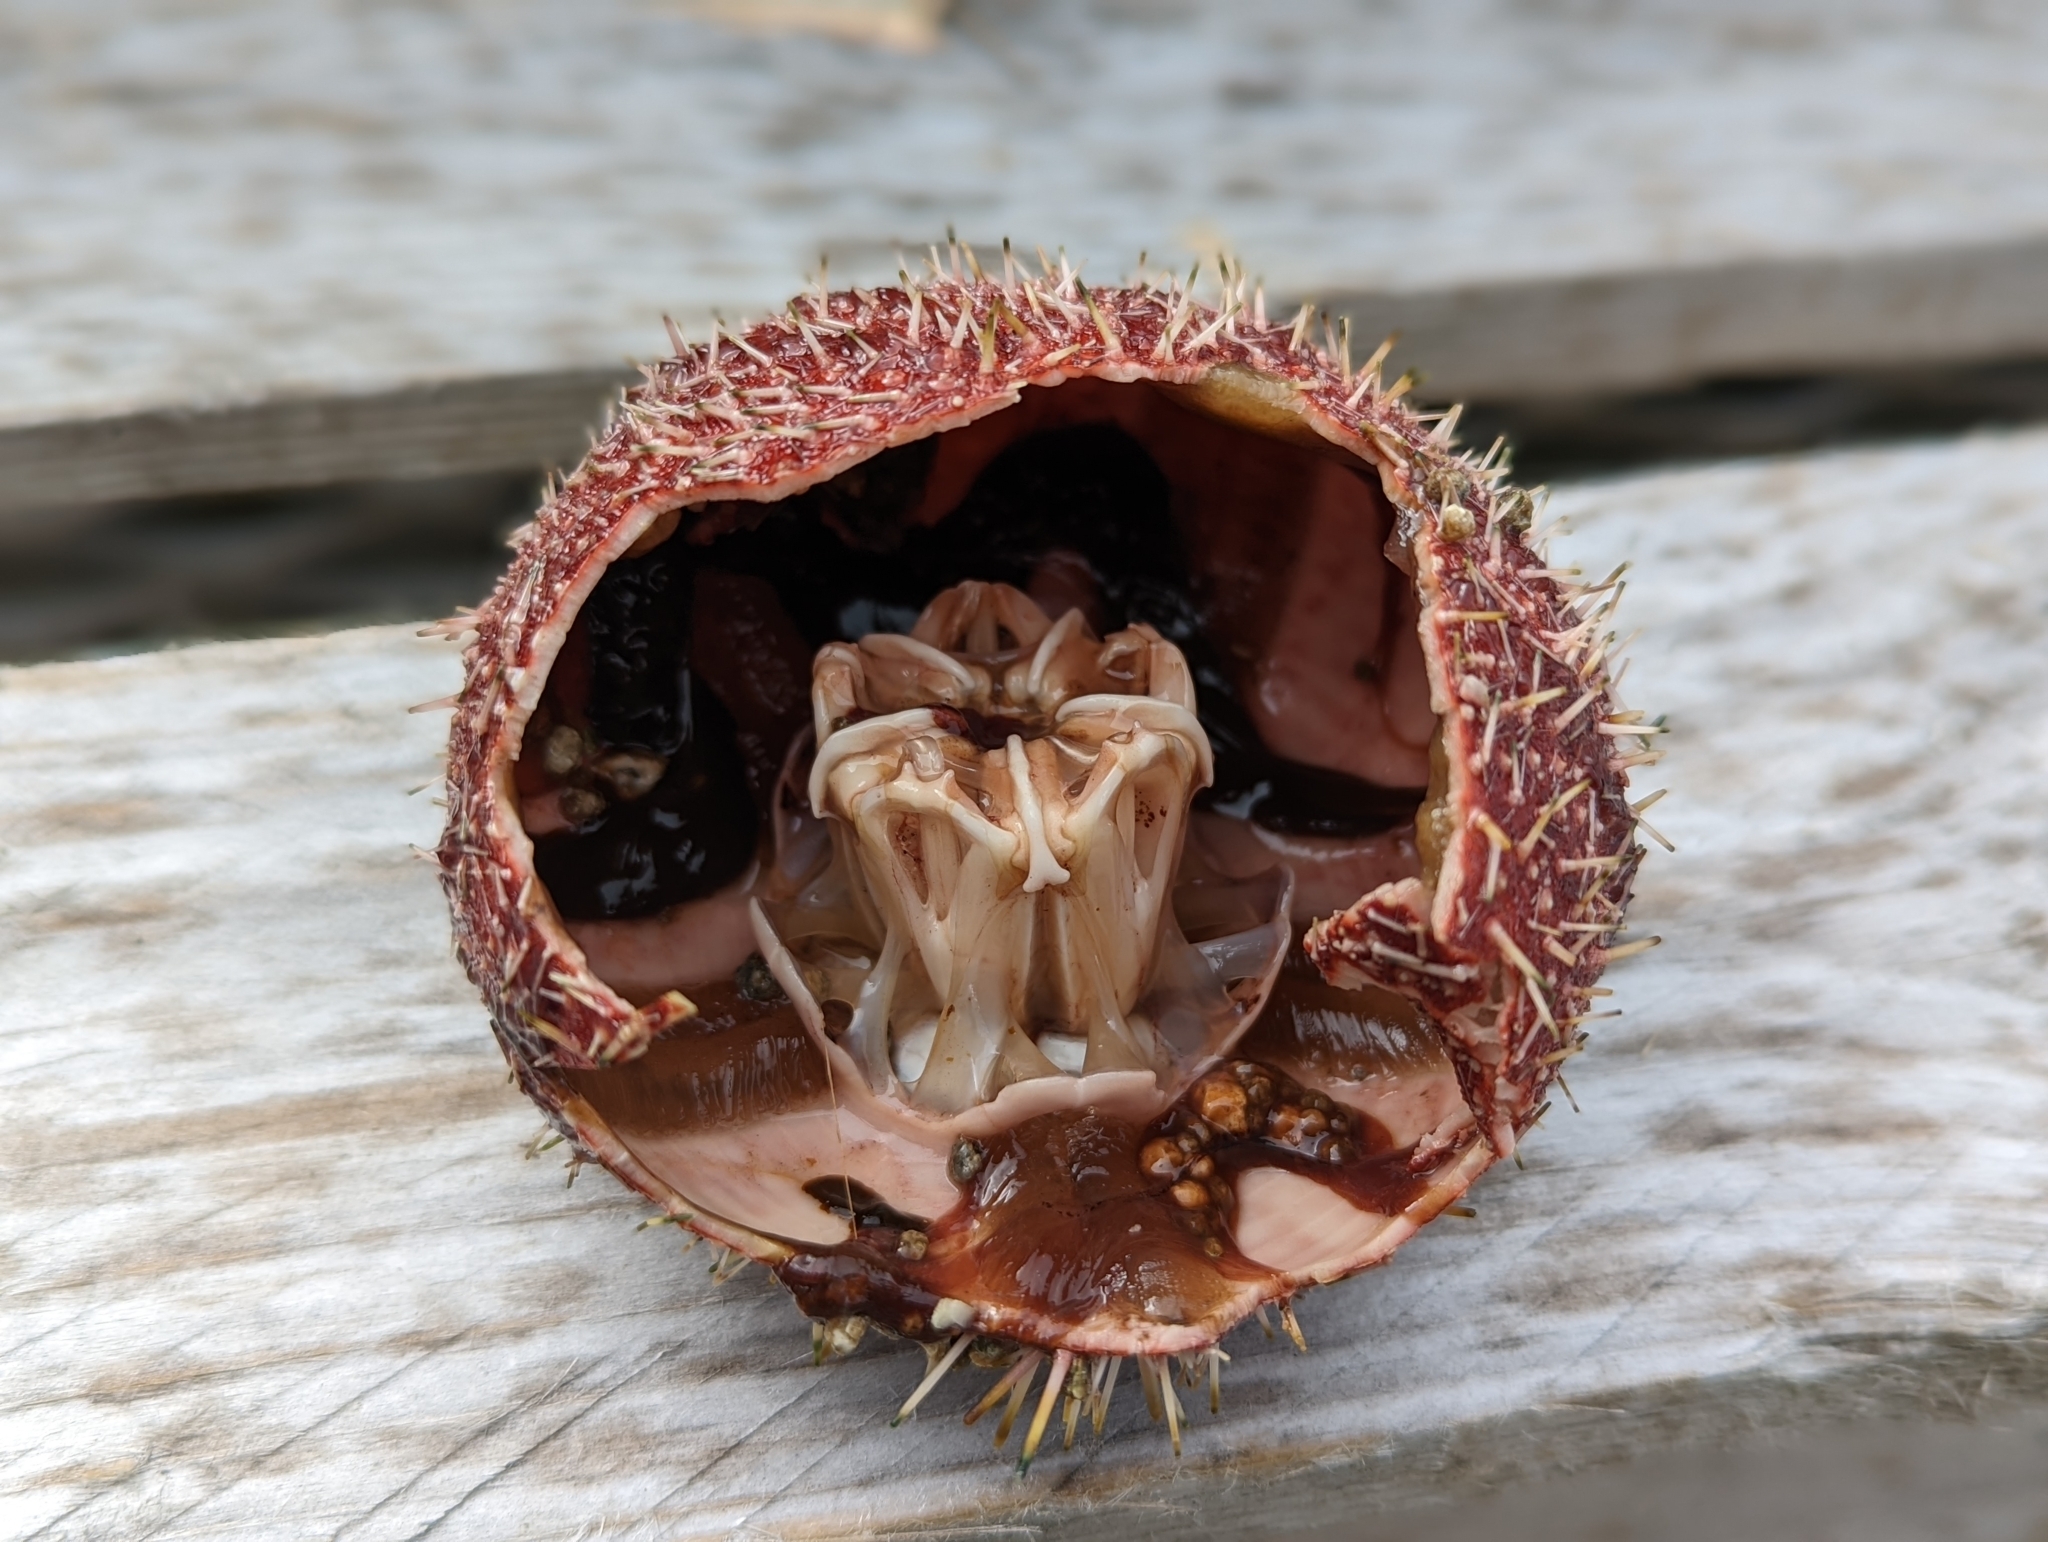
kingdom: Animalia
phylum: Echinodermata
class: Echinoidea
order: Camarodonta
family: Echinidae
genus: Echinus
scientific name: Echinus esculentus
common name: Edible sea urchin
